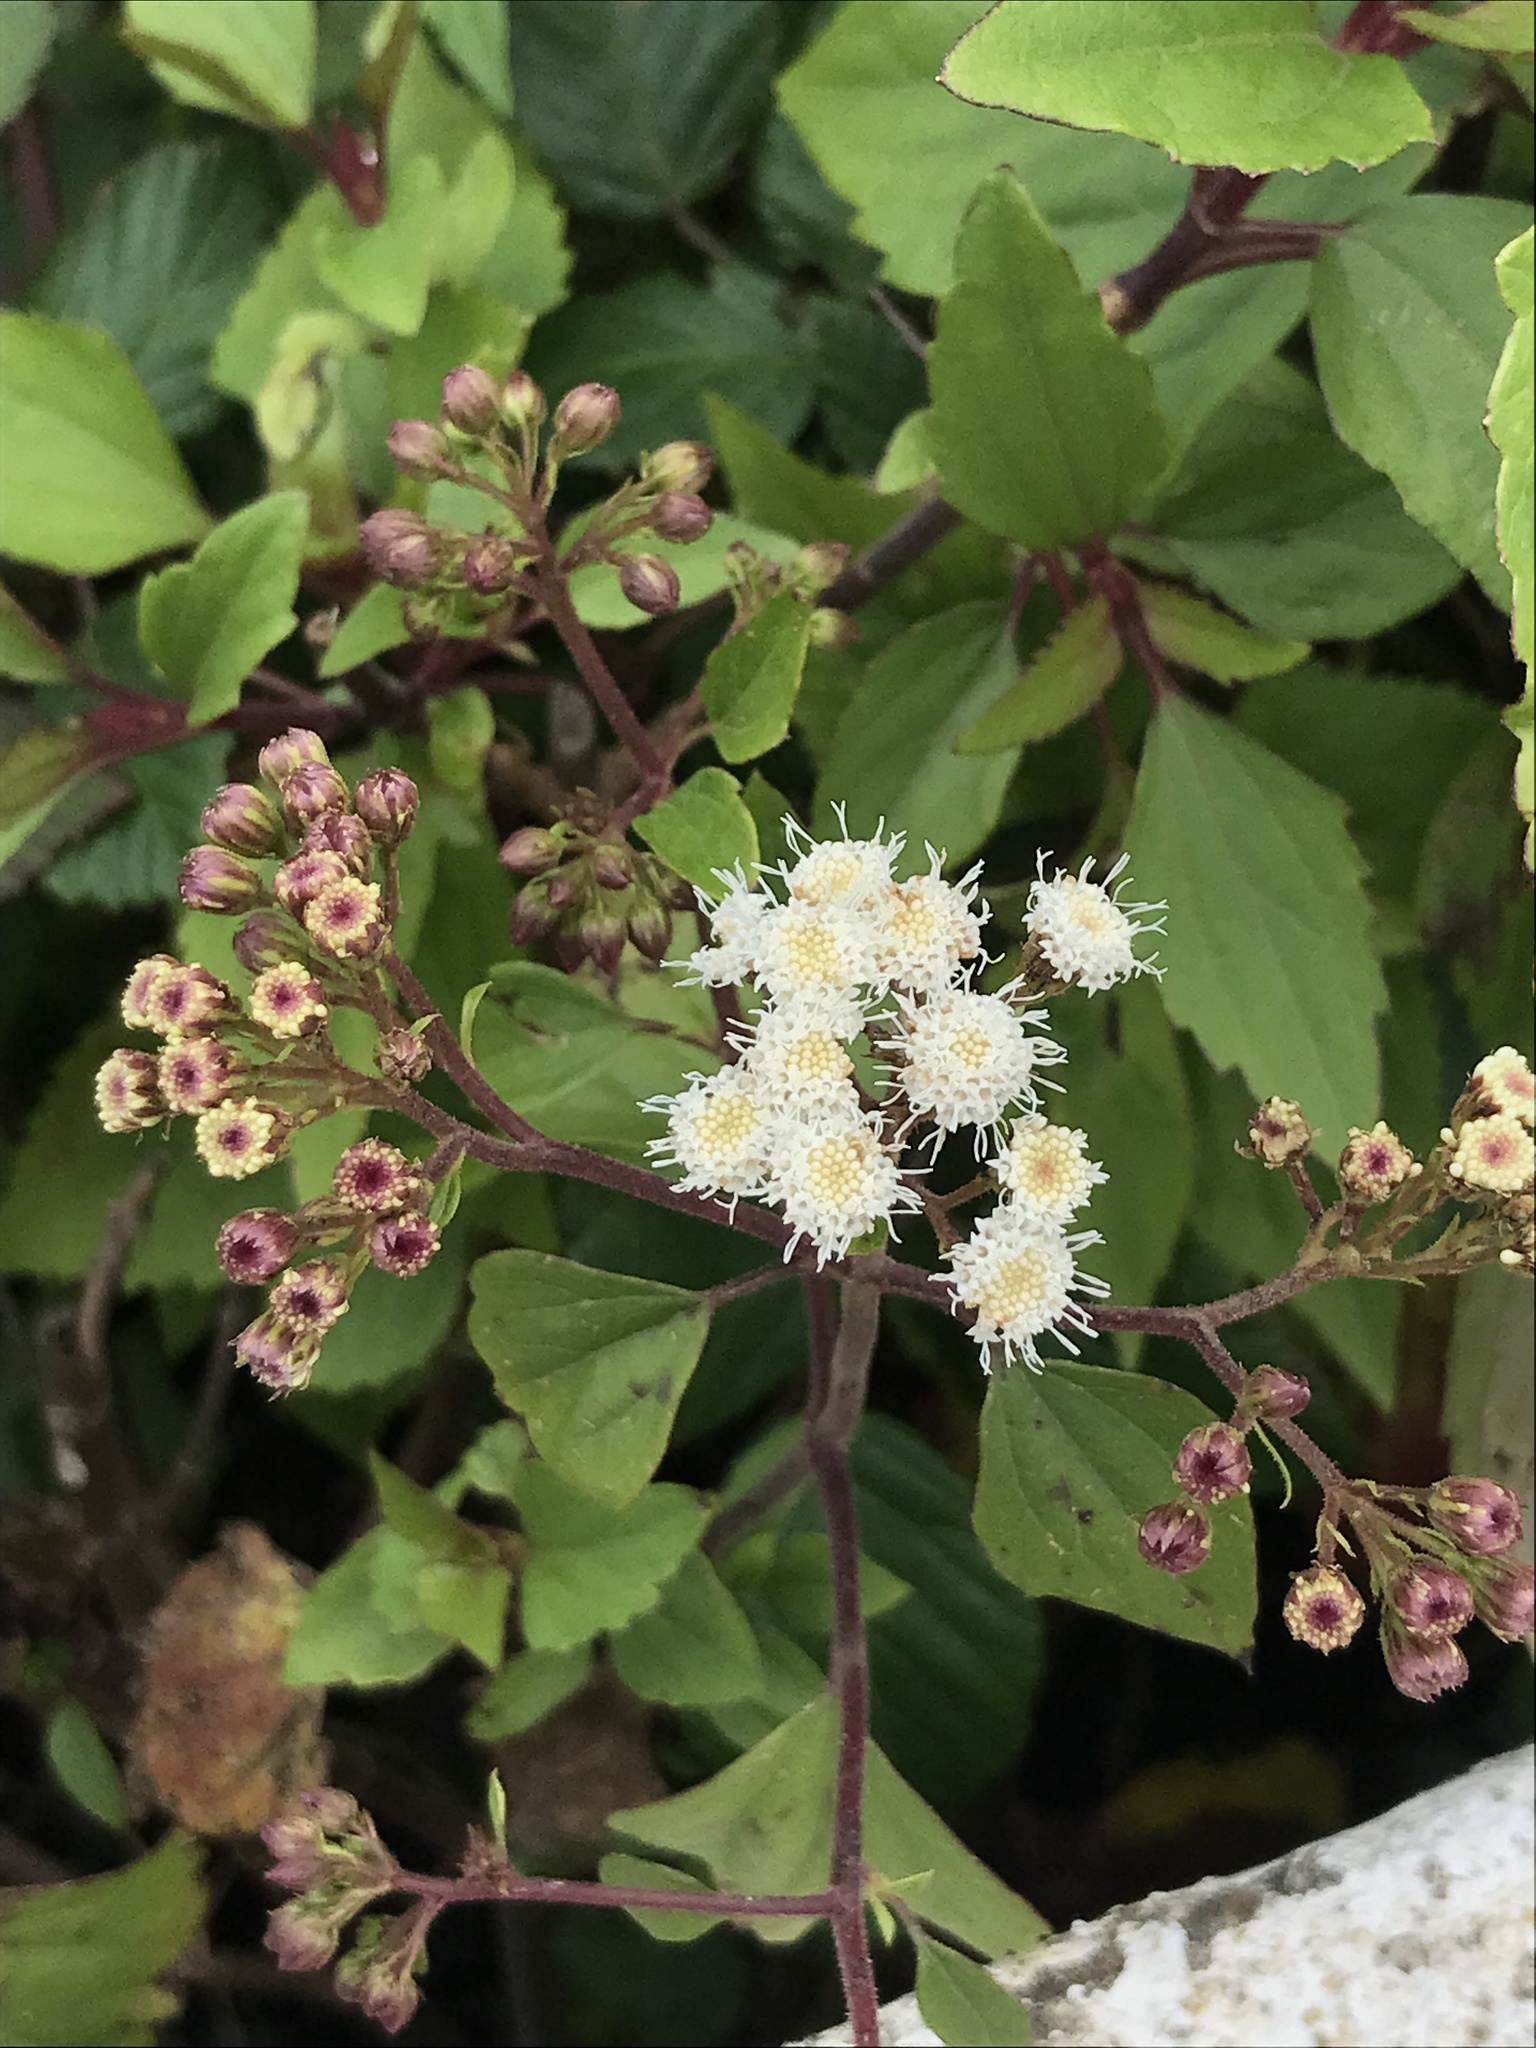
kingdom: Plantae
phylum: Tracheophyta
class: Magnoliopsida
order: Asterales
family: Asteraceae
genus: Ageratina
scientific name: Ageratina adenophora
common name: Sticky snakeroot
